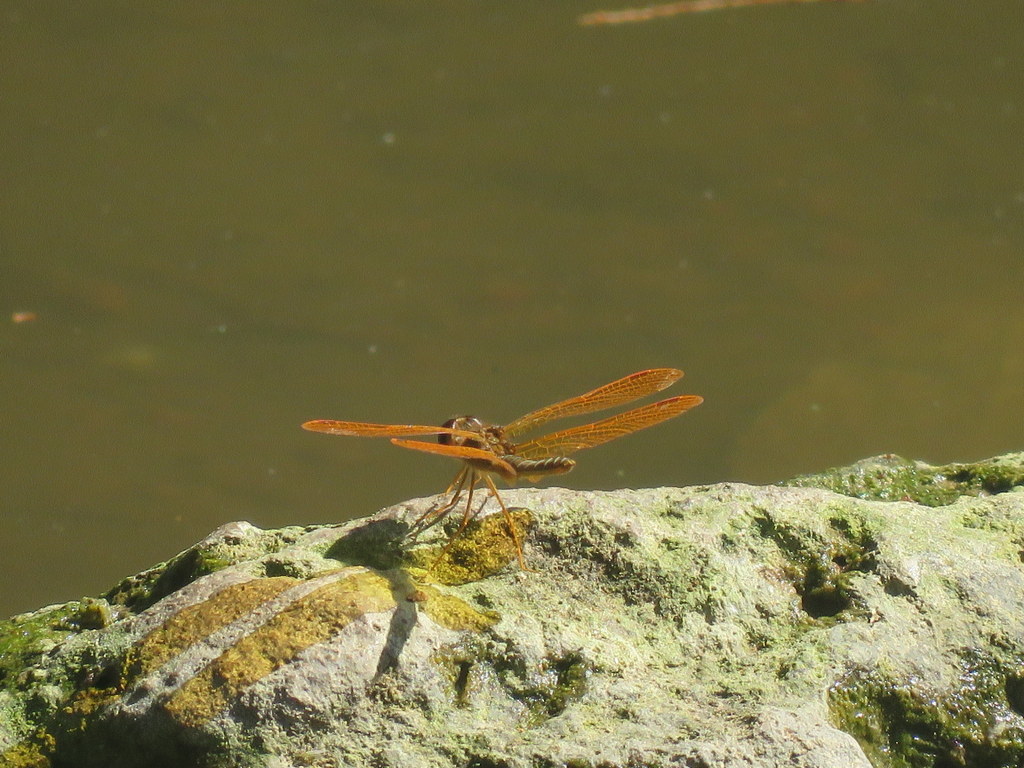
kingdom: Animalia
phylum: Arthropoda
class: Insecta
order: Odonata
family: Libellulidae
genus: Perithemis
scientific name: Perithemis tenera
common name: Eastern amberwing
